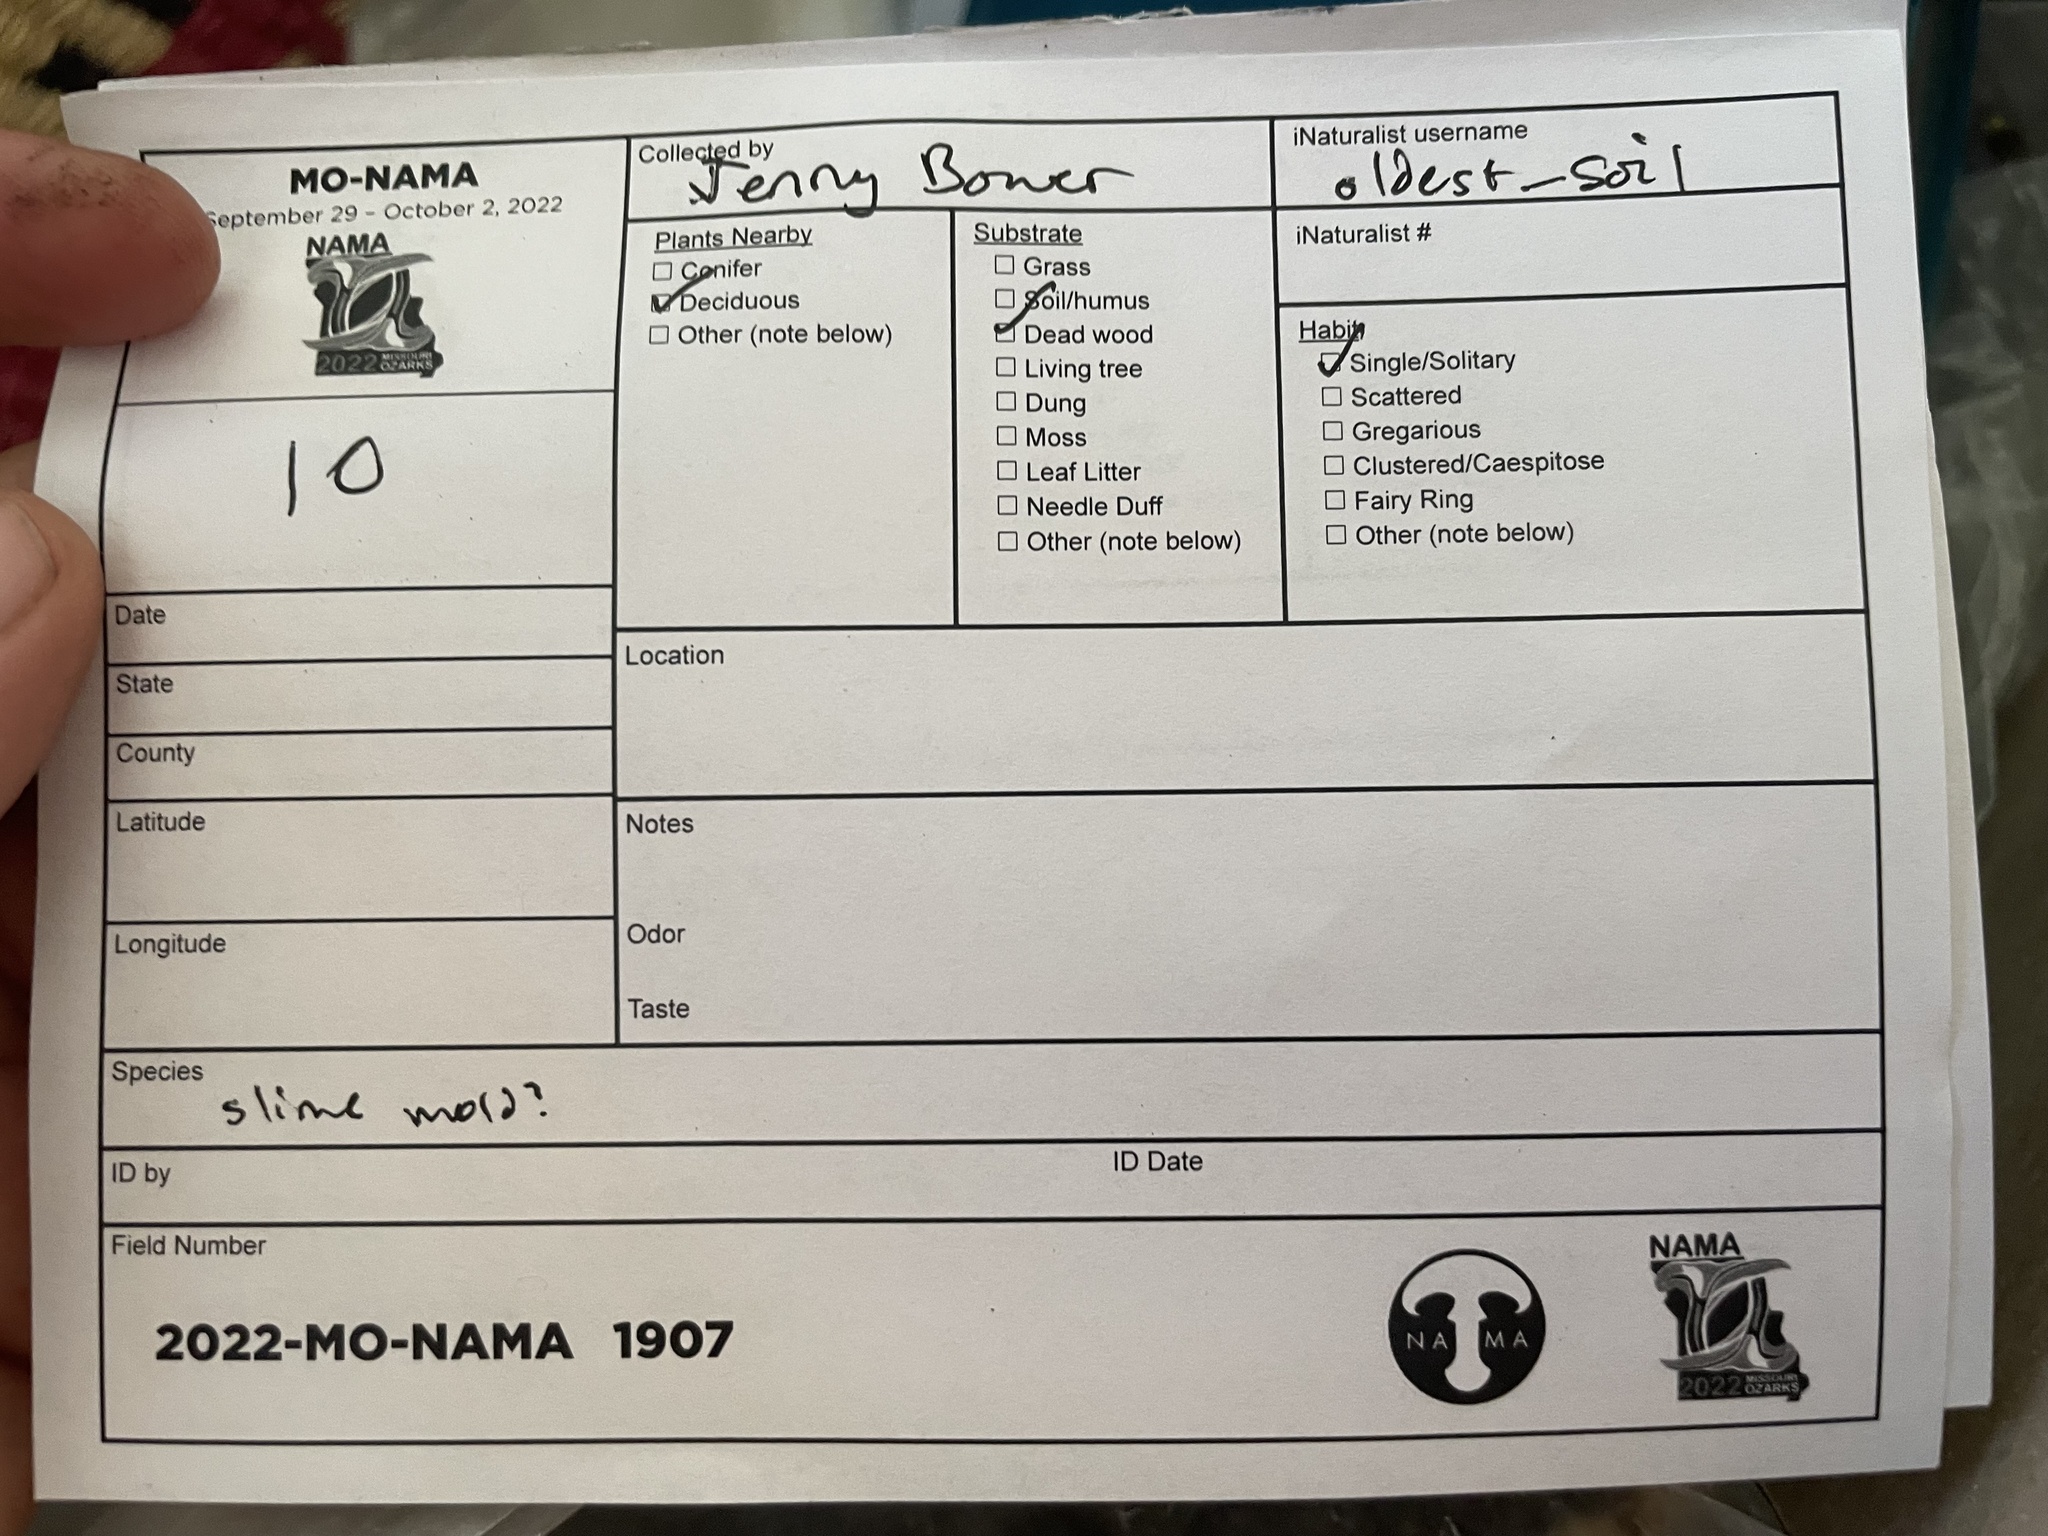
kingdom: Protozoa
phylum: Mycetozoa
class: Myxomycetes
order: Cribrariales
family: Tubiferaceae
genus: Reticularia
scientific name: Reticularia splendens
